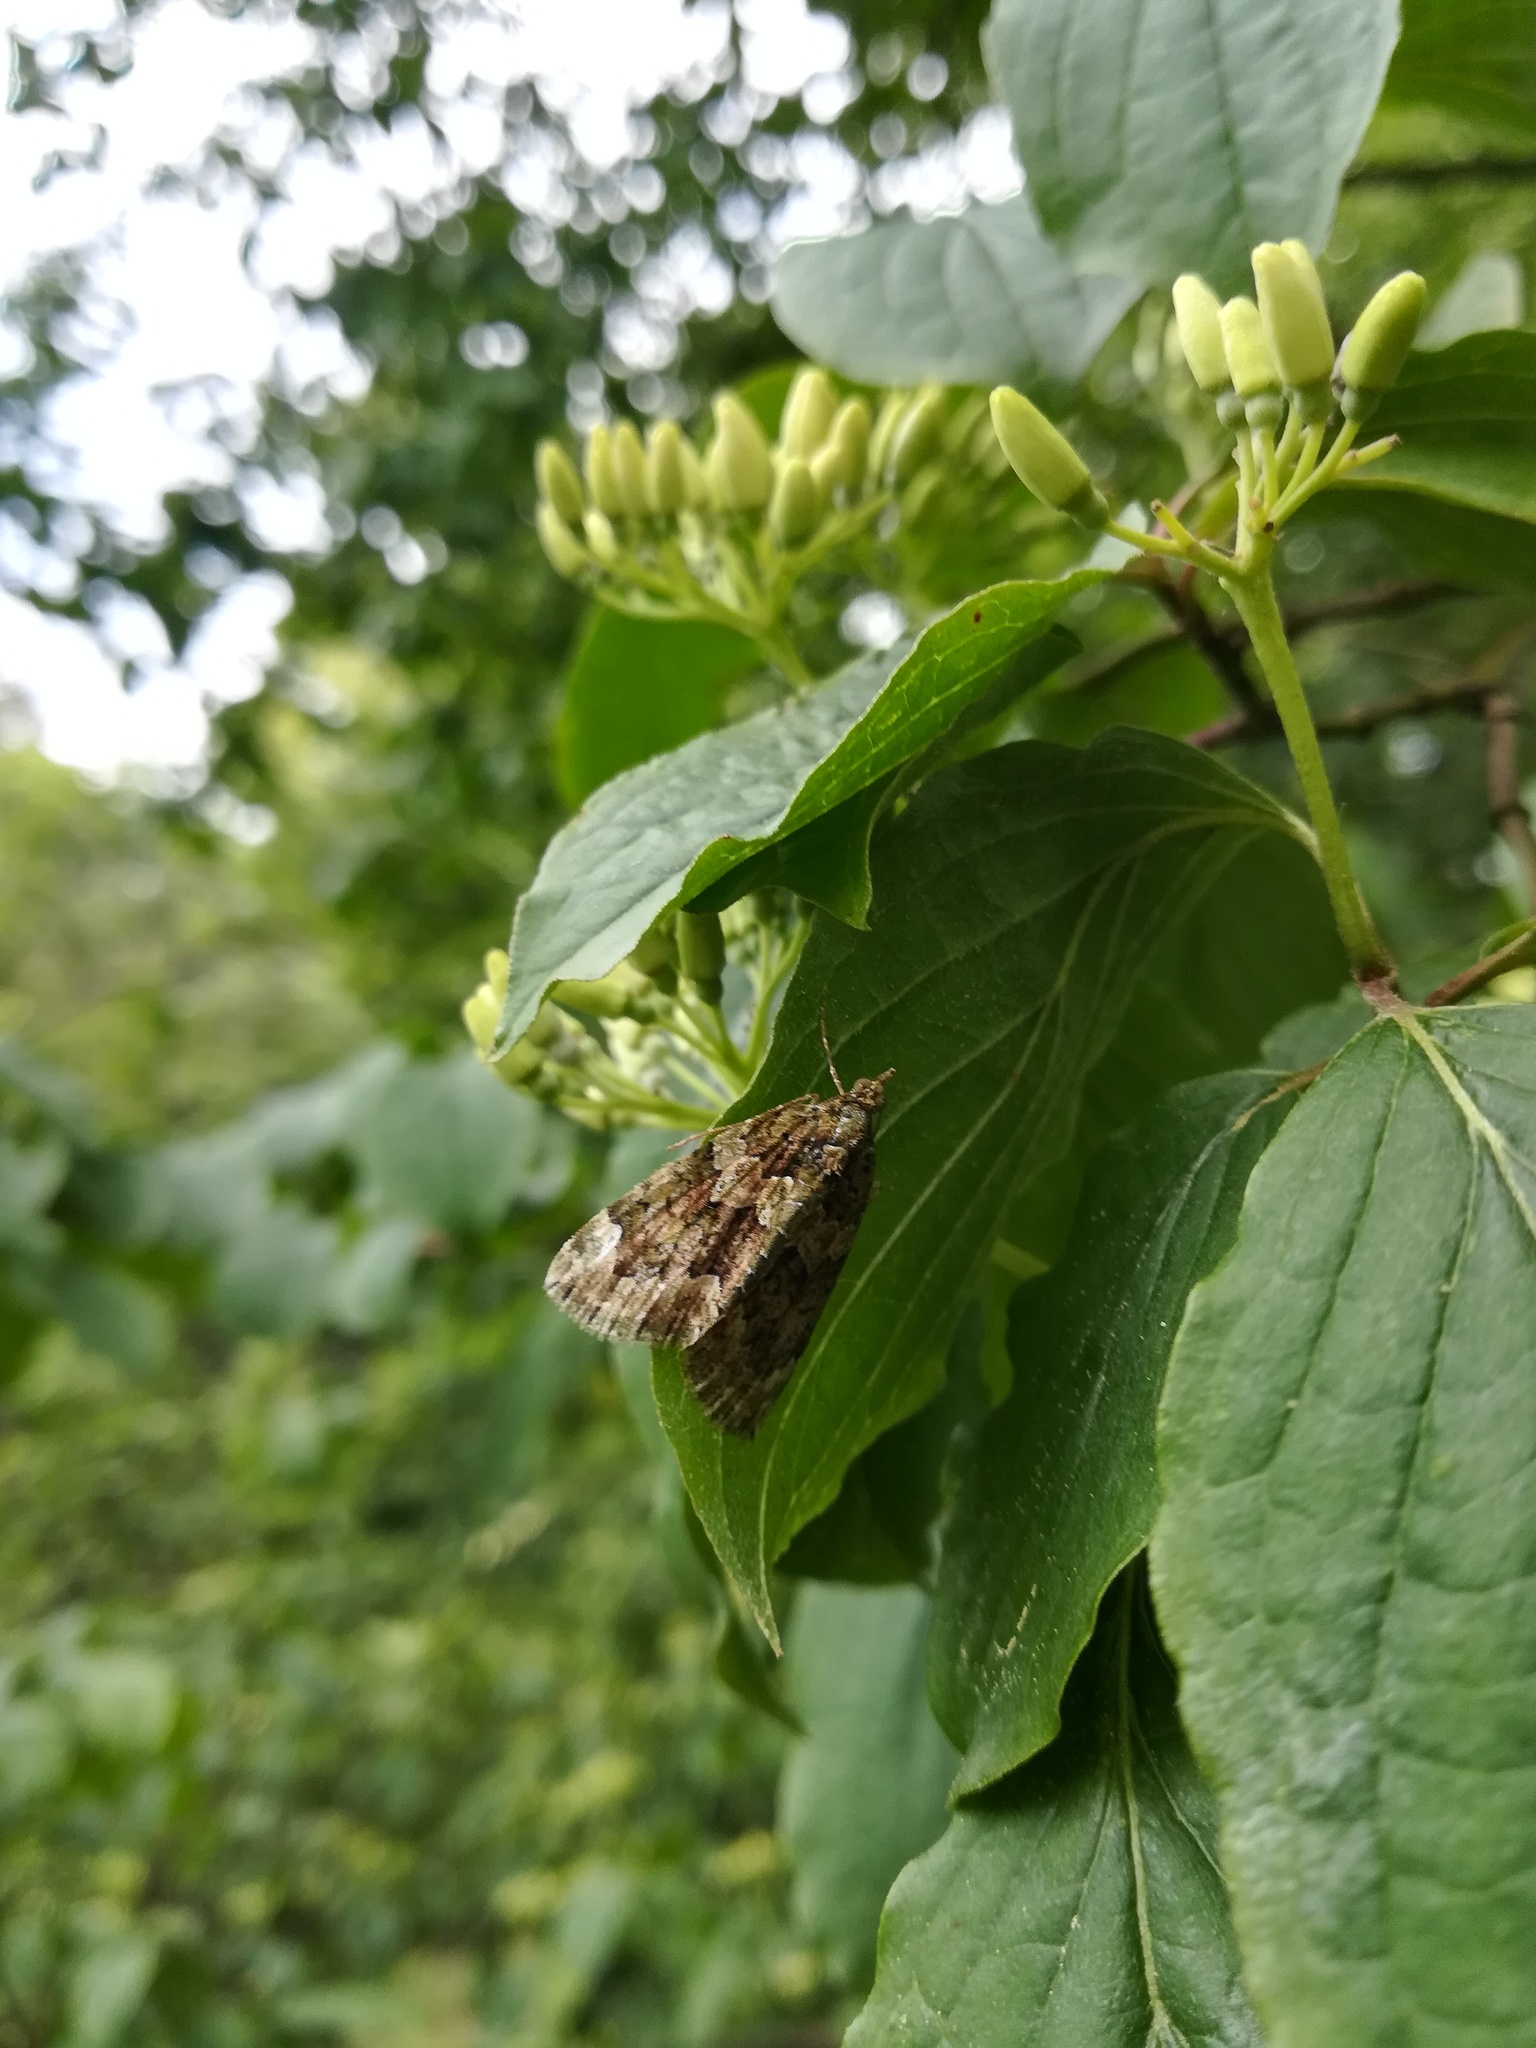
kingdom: Animalia
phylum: Arthropoda
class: Insecta
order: Lepidoptera
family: Geometridae
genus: Chloroclysta
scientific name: Chloroclysta siterata
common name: Red-green carpet
